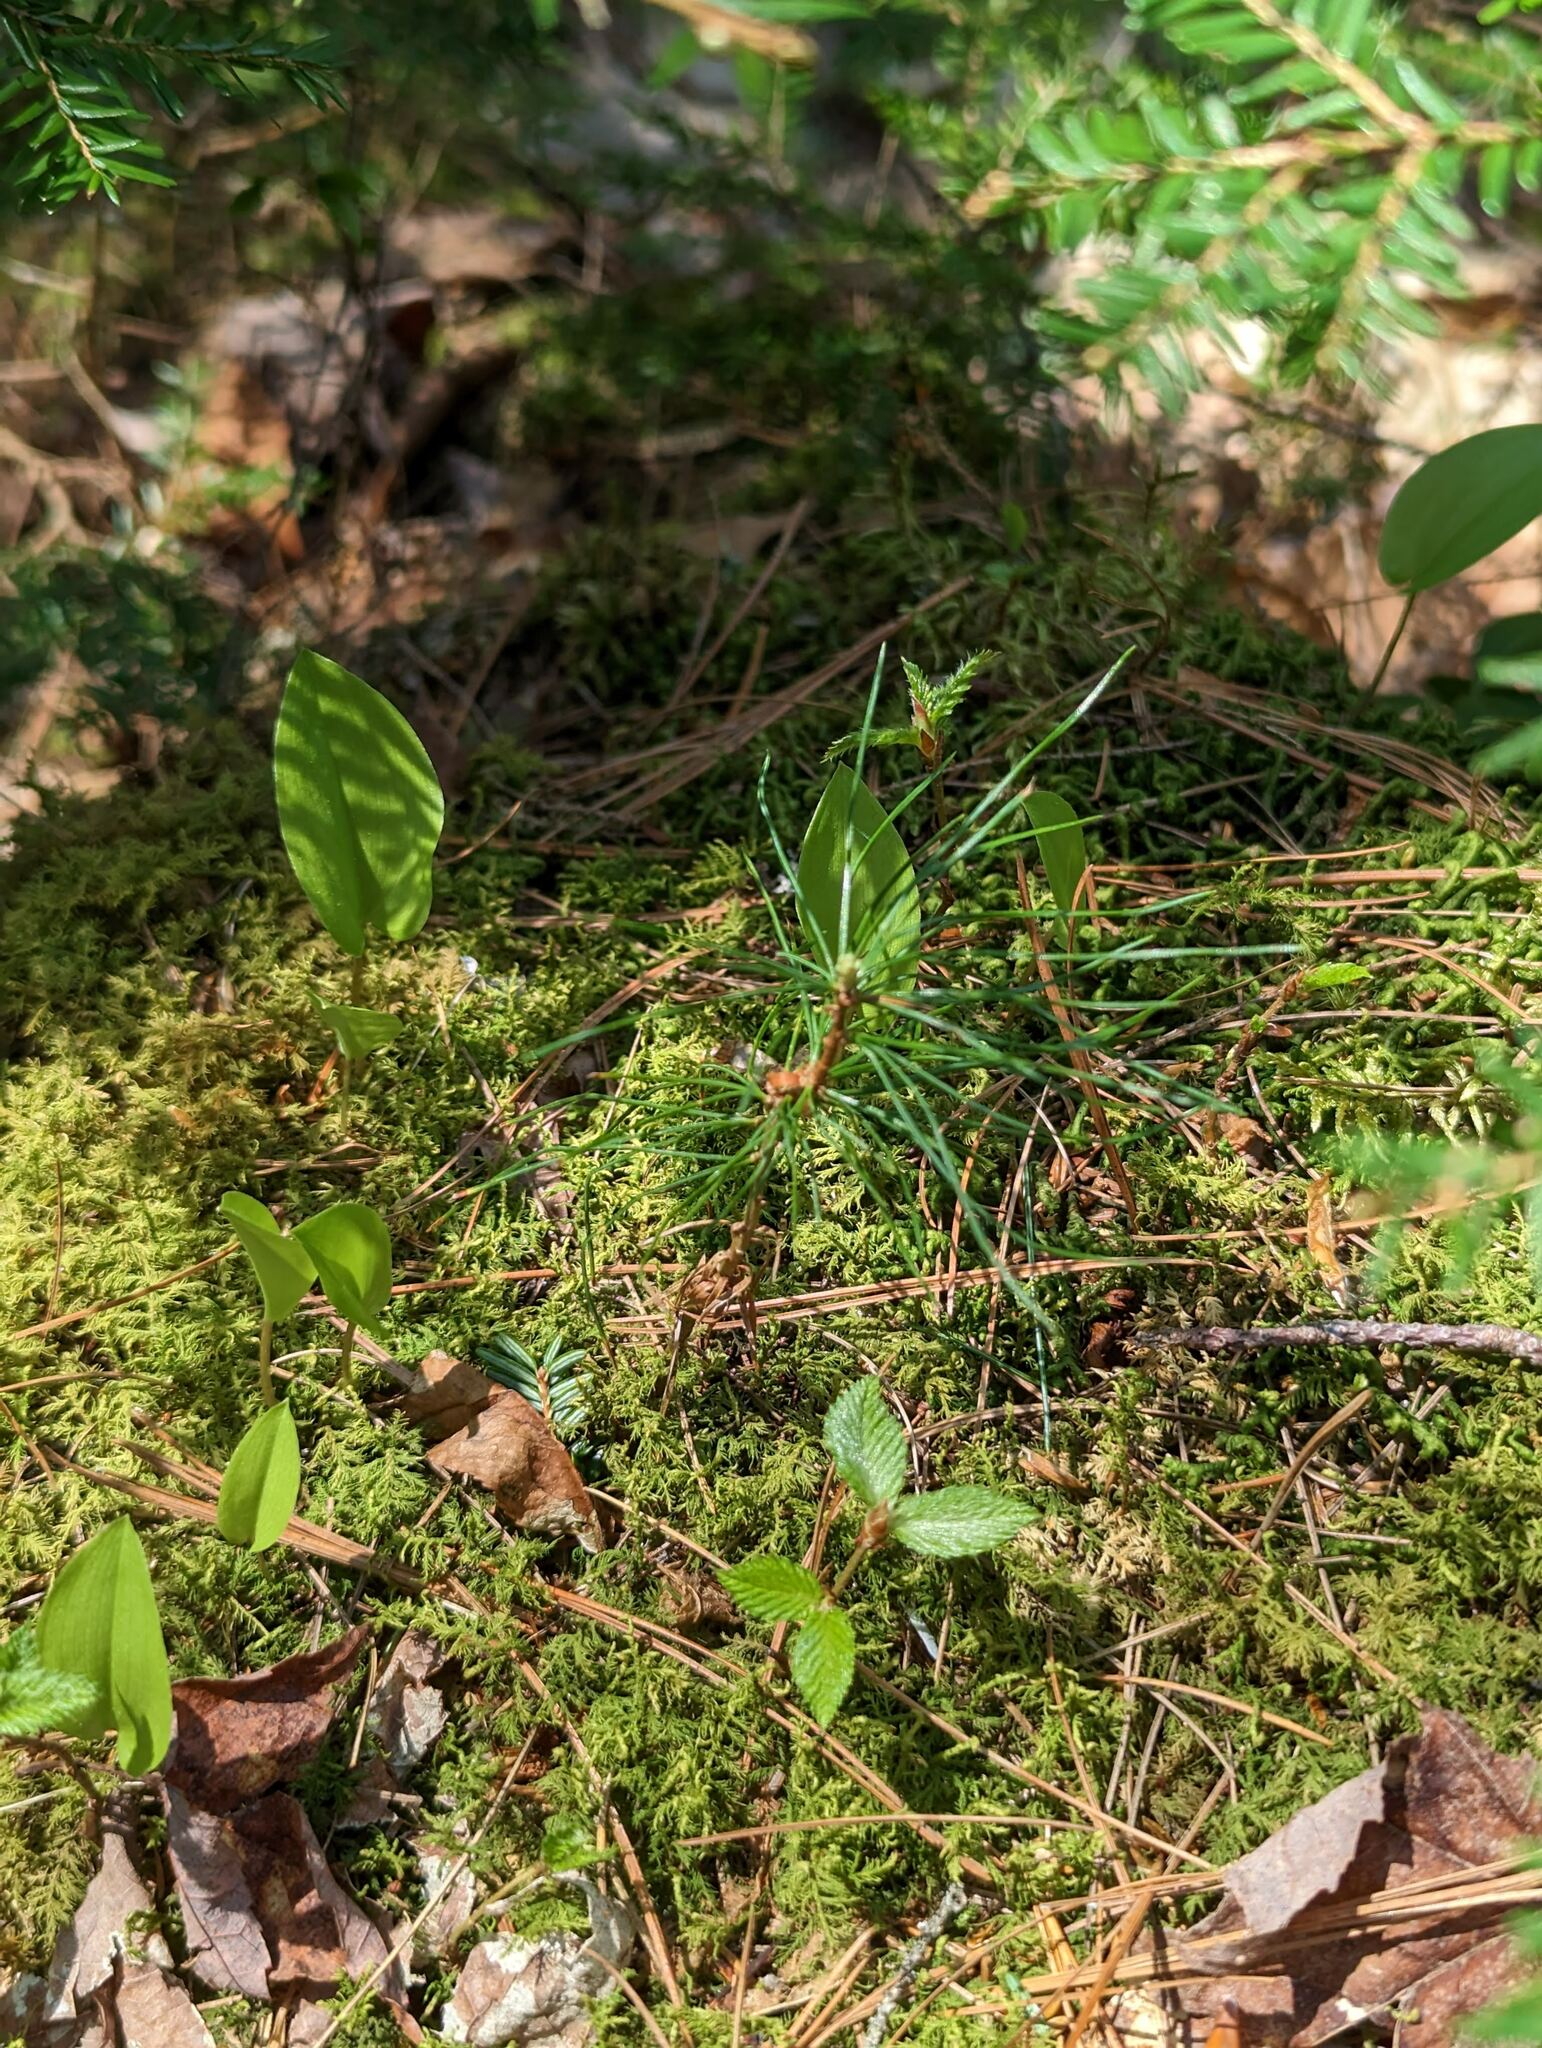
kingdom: Plantae
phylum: Tracheophyta
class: Pinopsida
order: Pinales
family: Pinaceae
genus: Pinus
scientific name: Pinus strobus
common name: Weymouth pine
